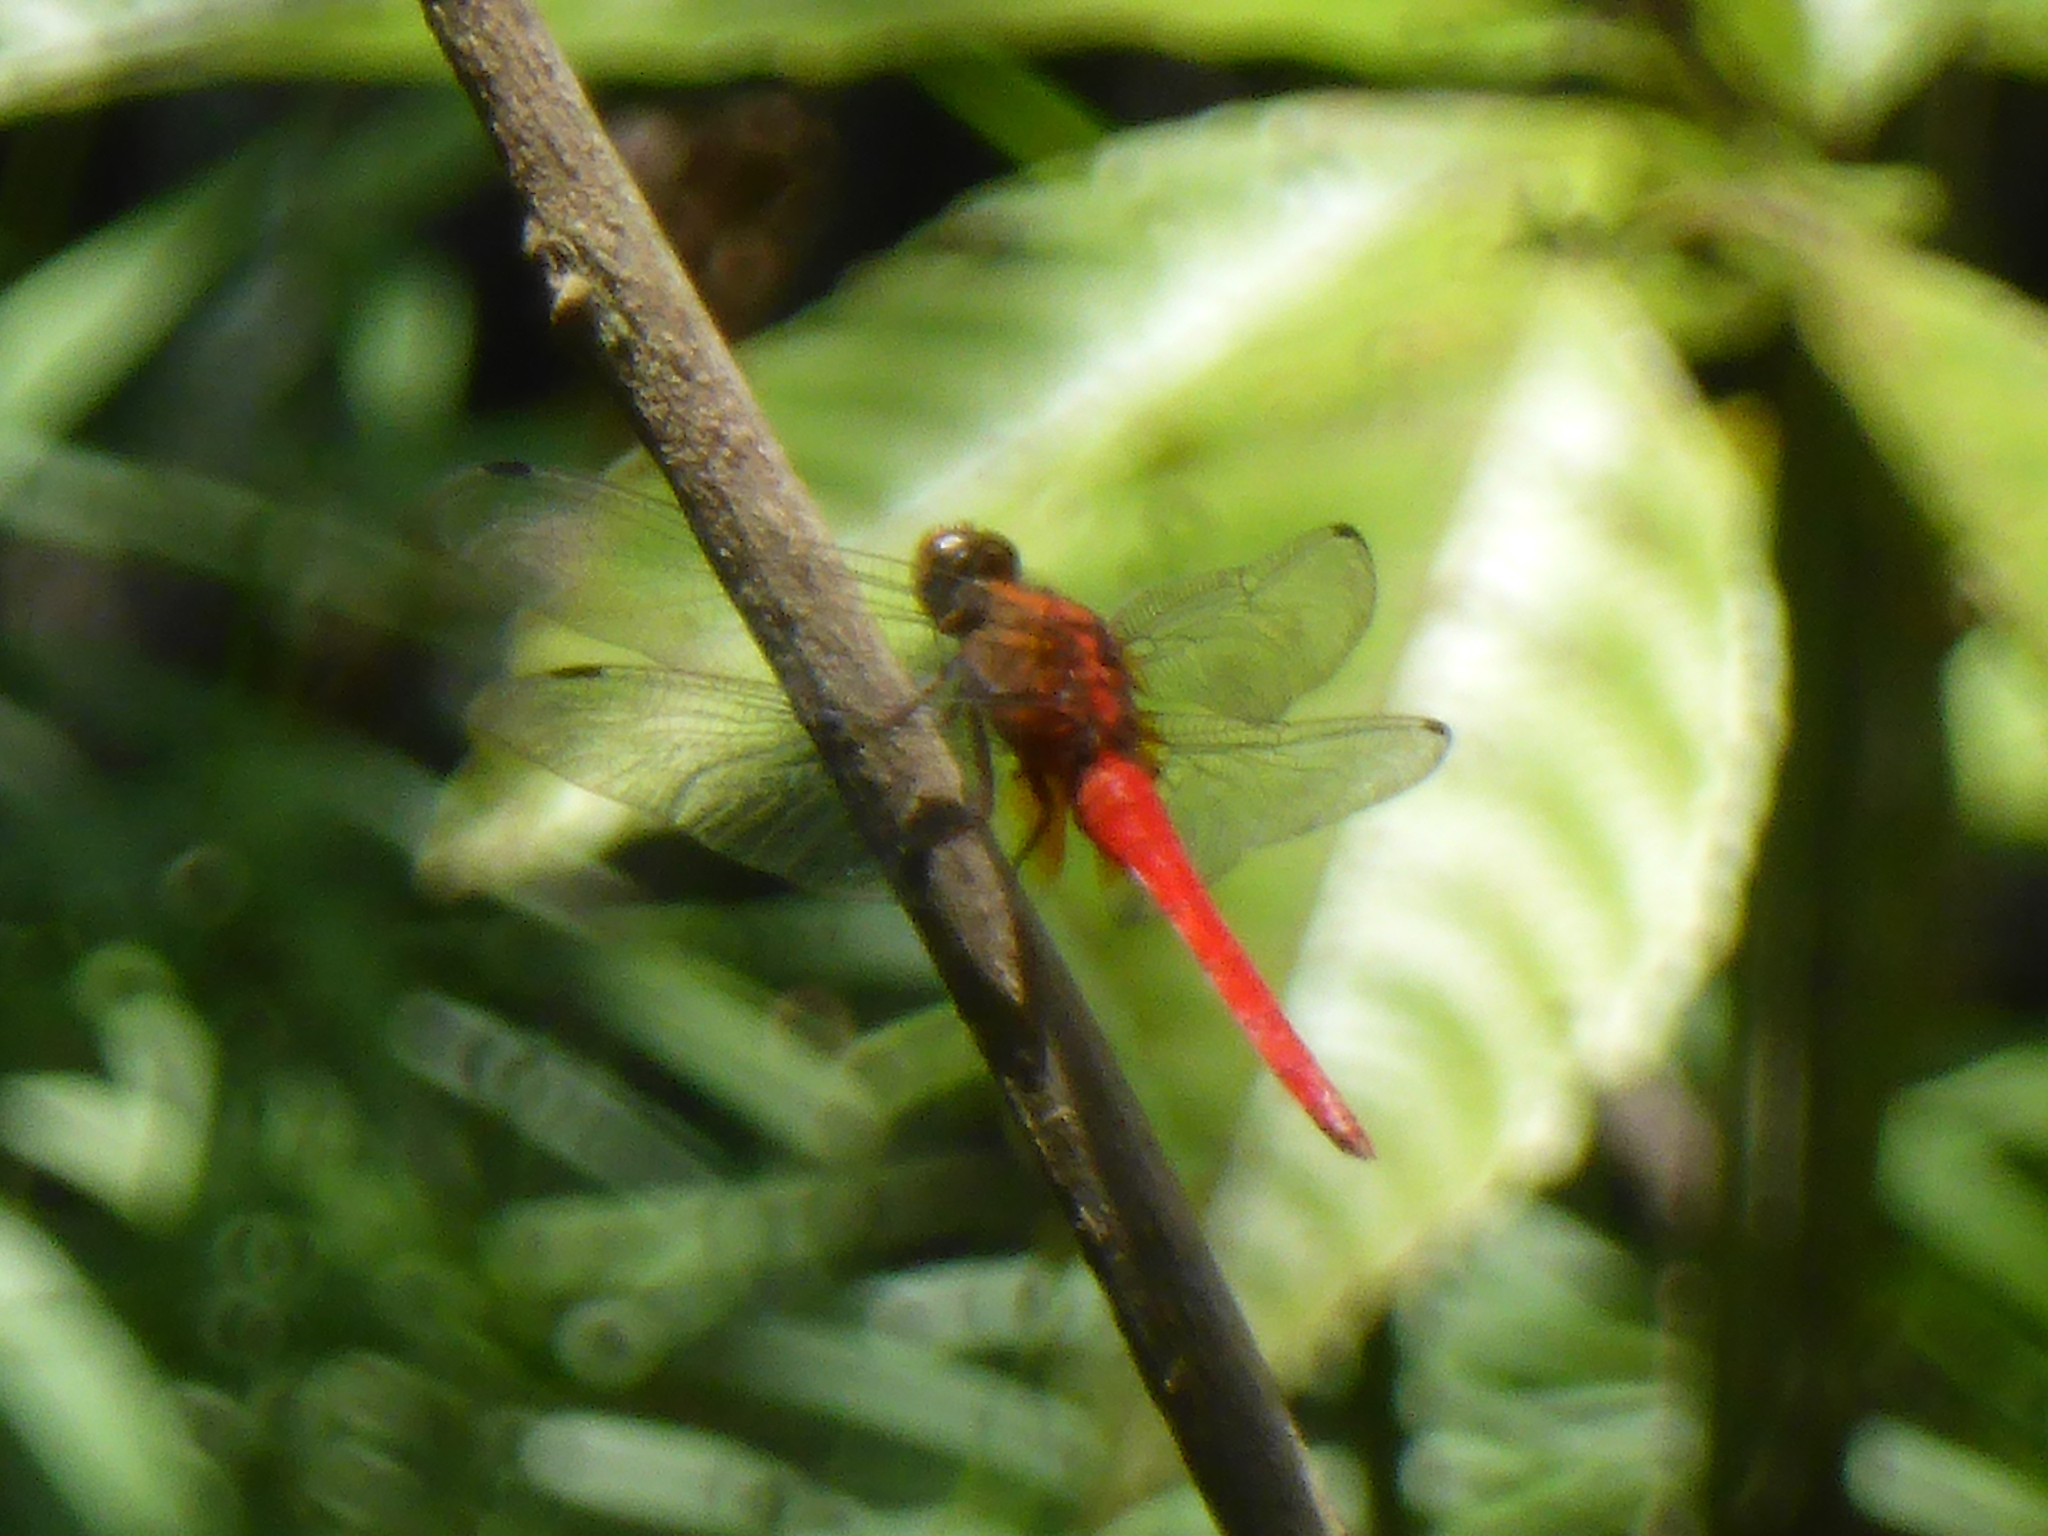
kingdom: Animalia
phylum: Arthropoda
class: Insecta
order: Odonata
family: Libellulidae
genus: Orthetrum
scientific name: Orthetrum testaceum
